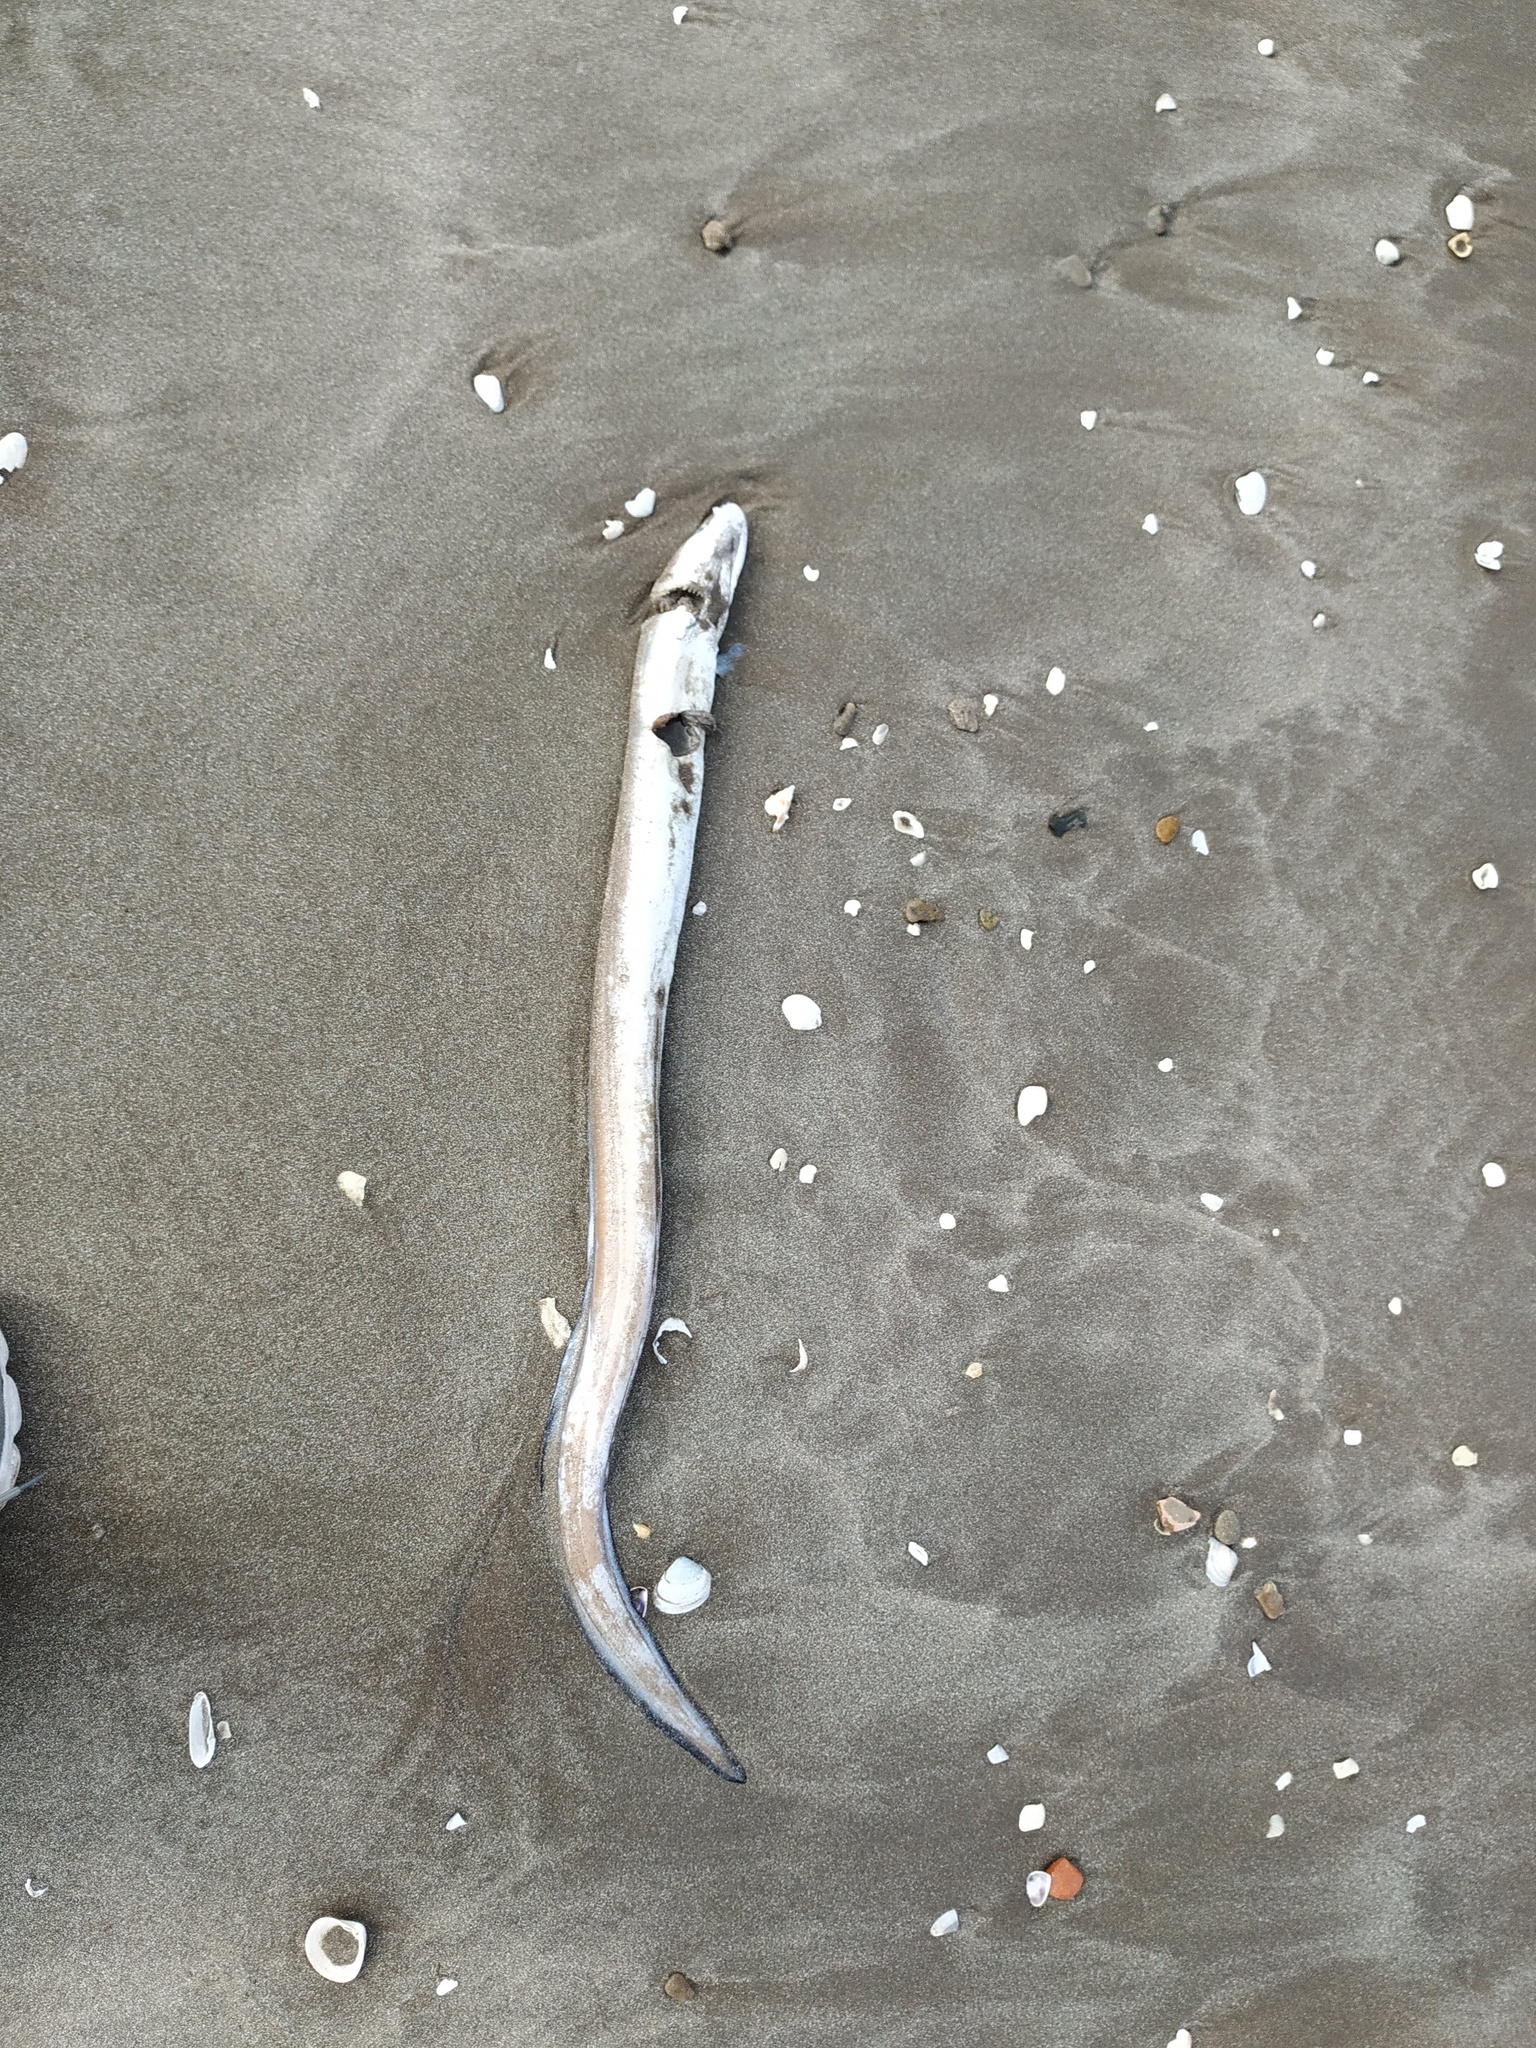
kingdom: Animalia
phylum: Chordata
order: Anguilliformes
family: Congridae
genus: Conger
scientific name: Conger orbignianus
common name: Argentine conger
